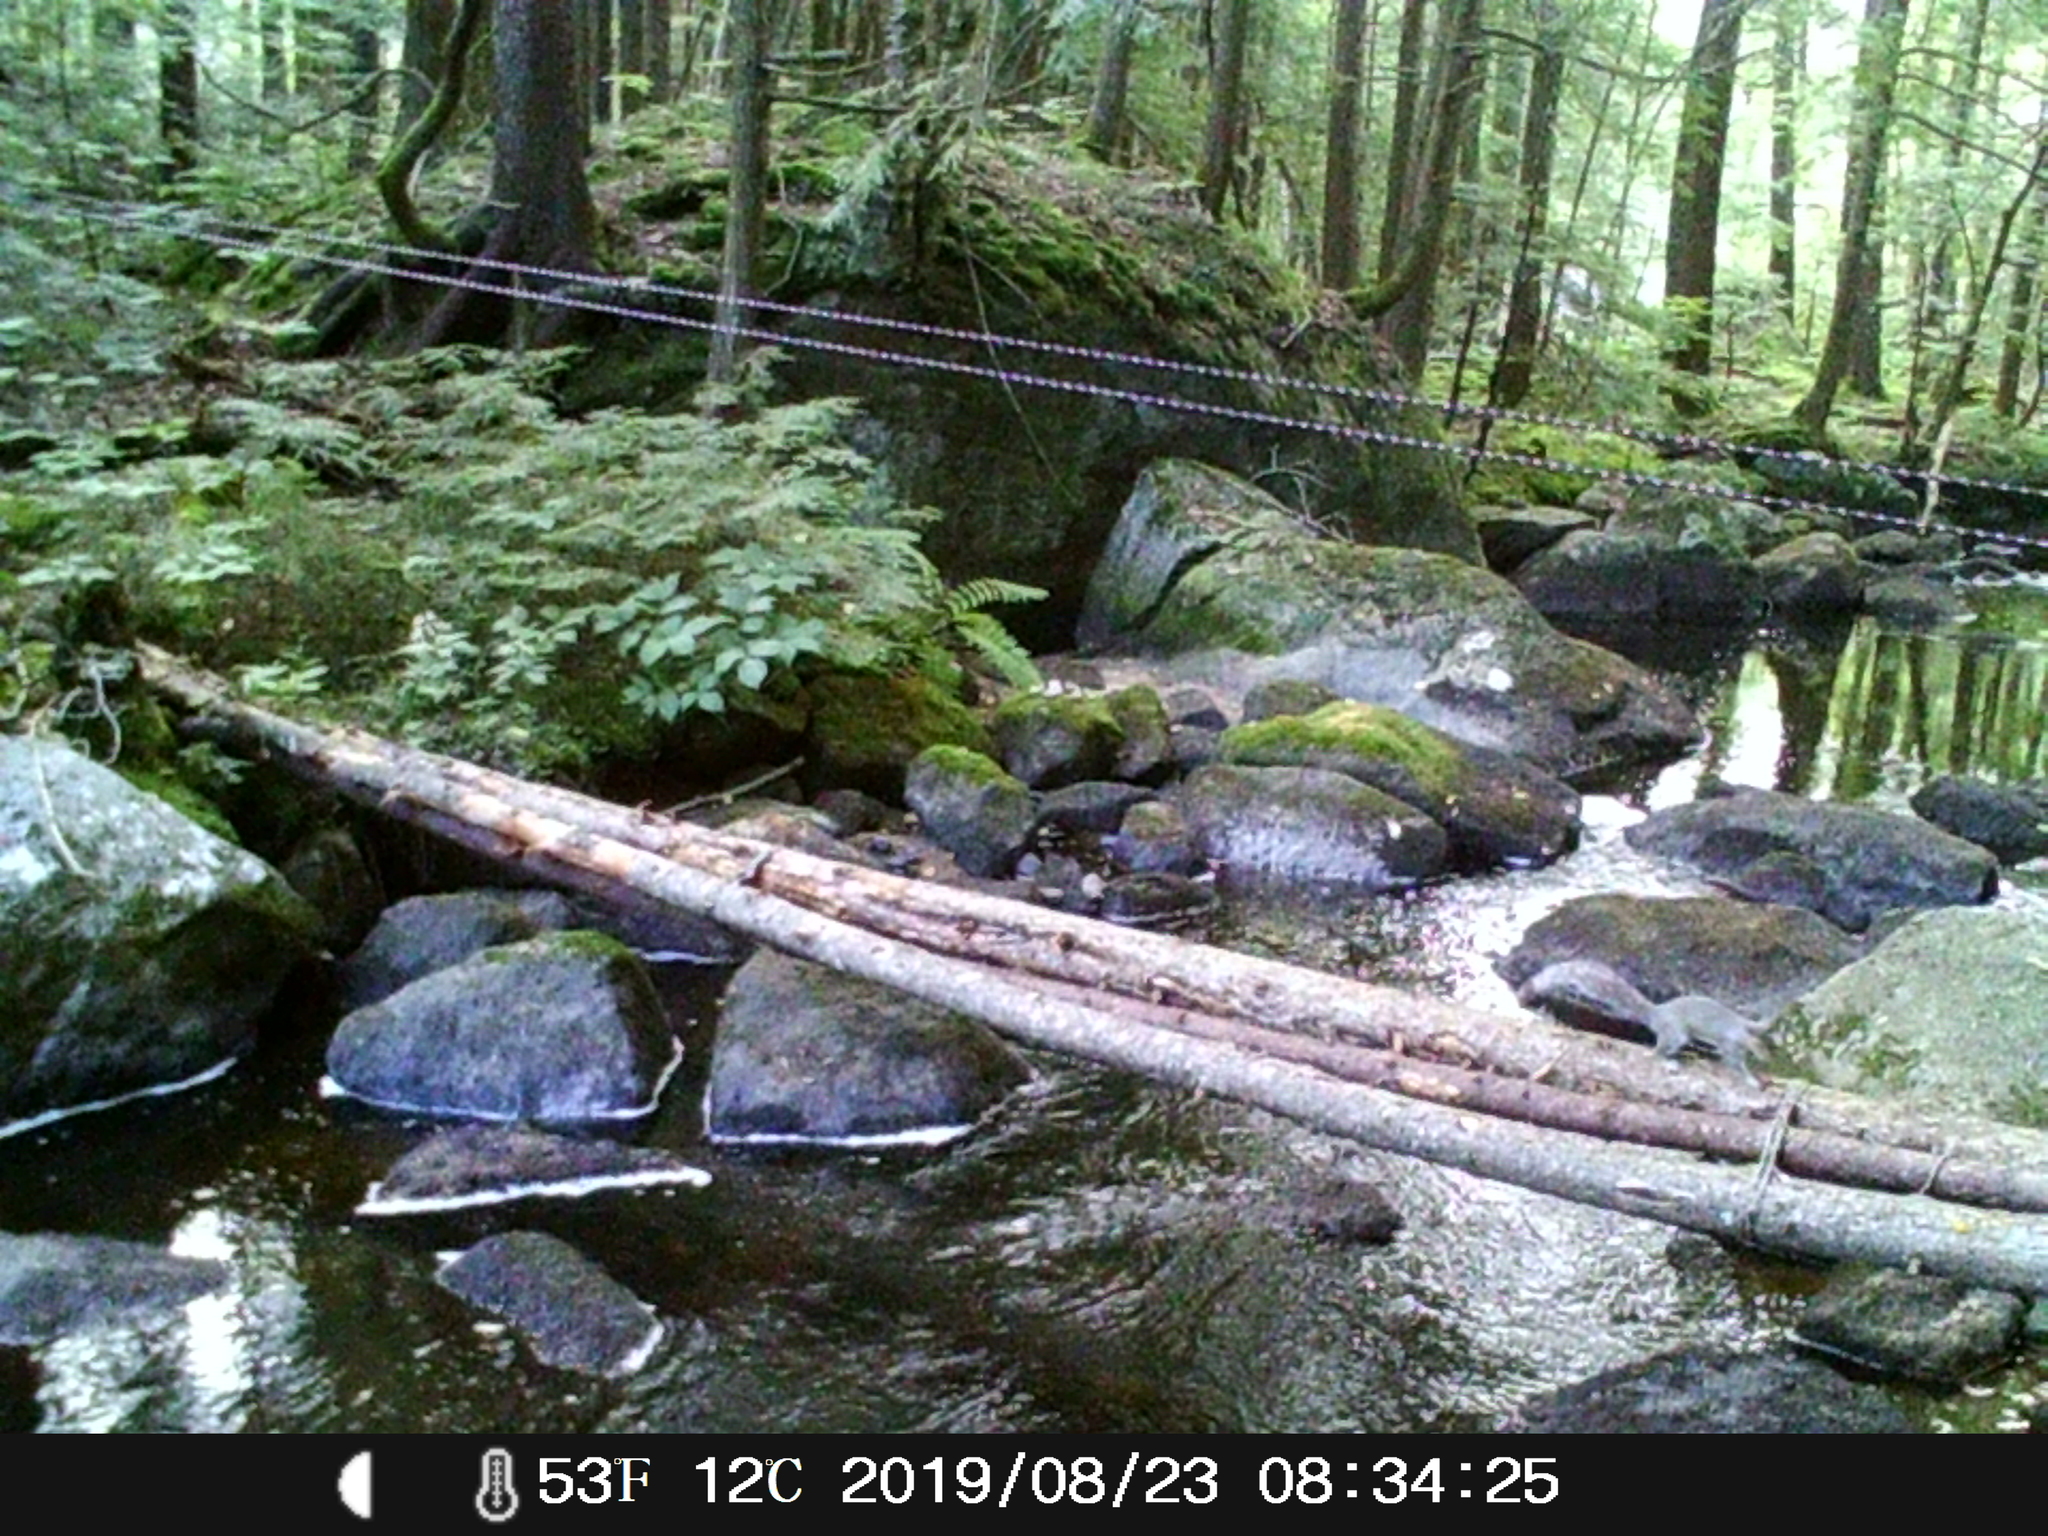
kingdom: Animalia
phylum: Chordata
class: Mammalia
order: Rodentia
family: Sciuridae
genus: Sciurus
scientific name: Sciurus carolinensis
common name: Eastern gray squirrel
